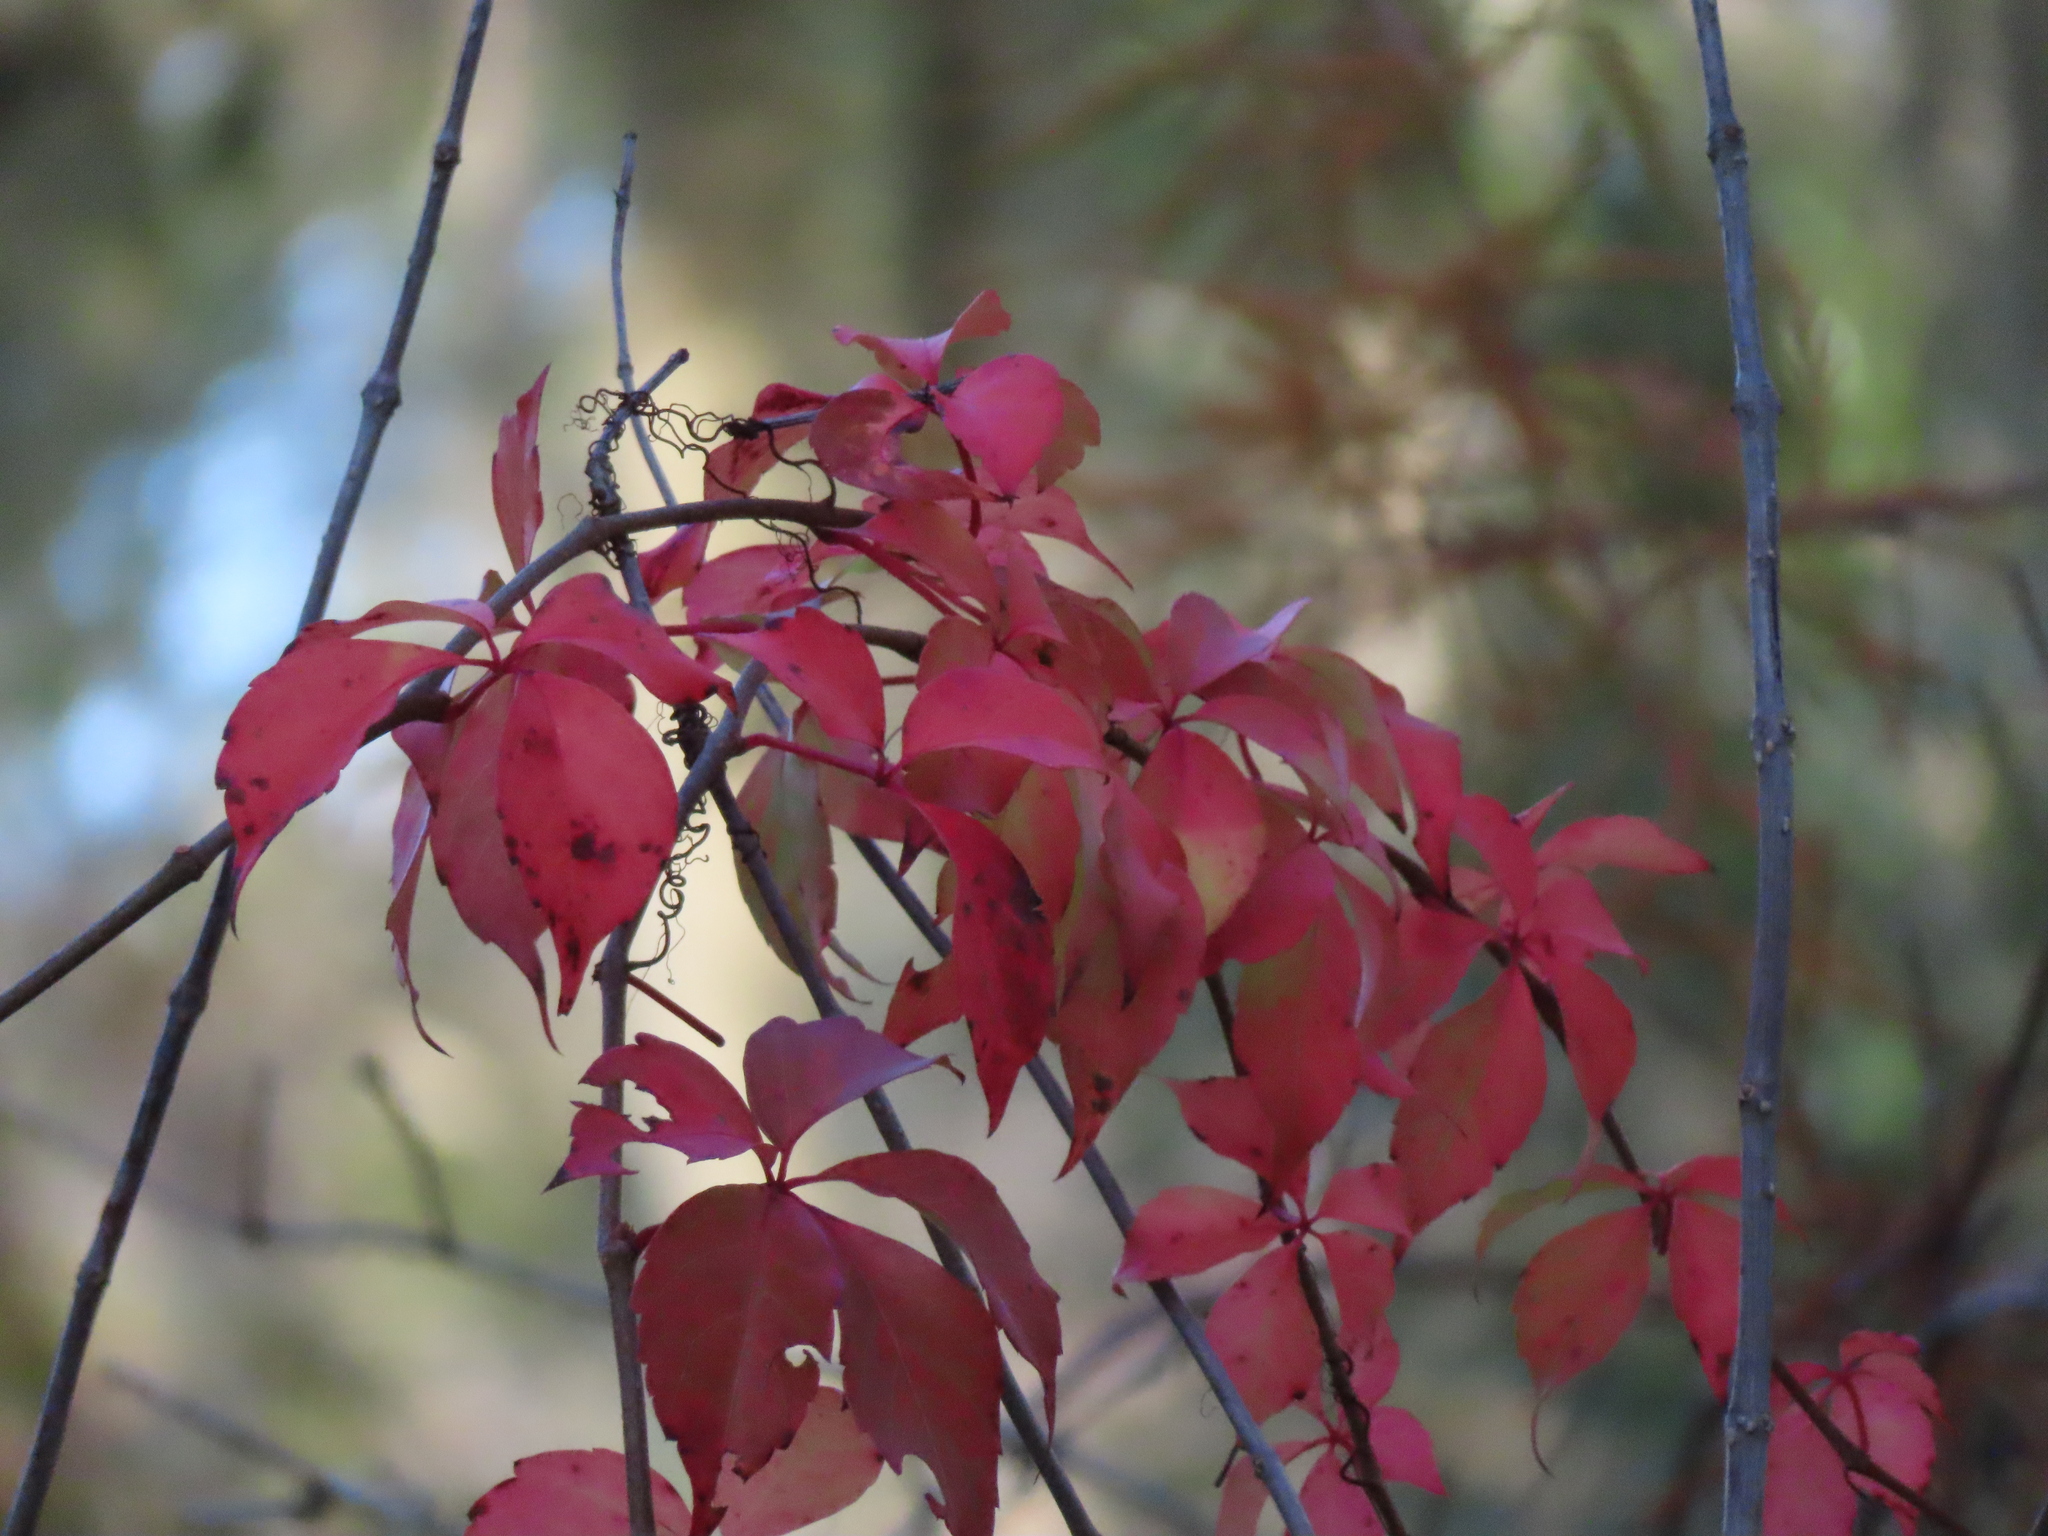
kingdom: Plantae
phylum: Tracheophyta
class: Magnoliopsida
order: Vitales
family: Vitaceae
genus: Parthenocissus
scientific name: Parthenocissus quinquefolia
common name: Virginia-creeper
